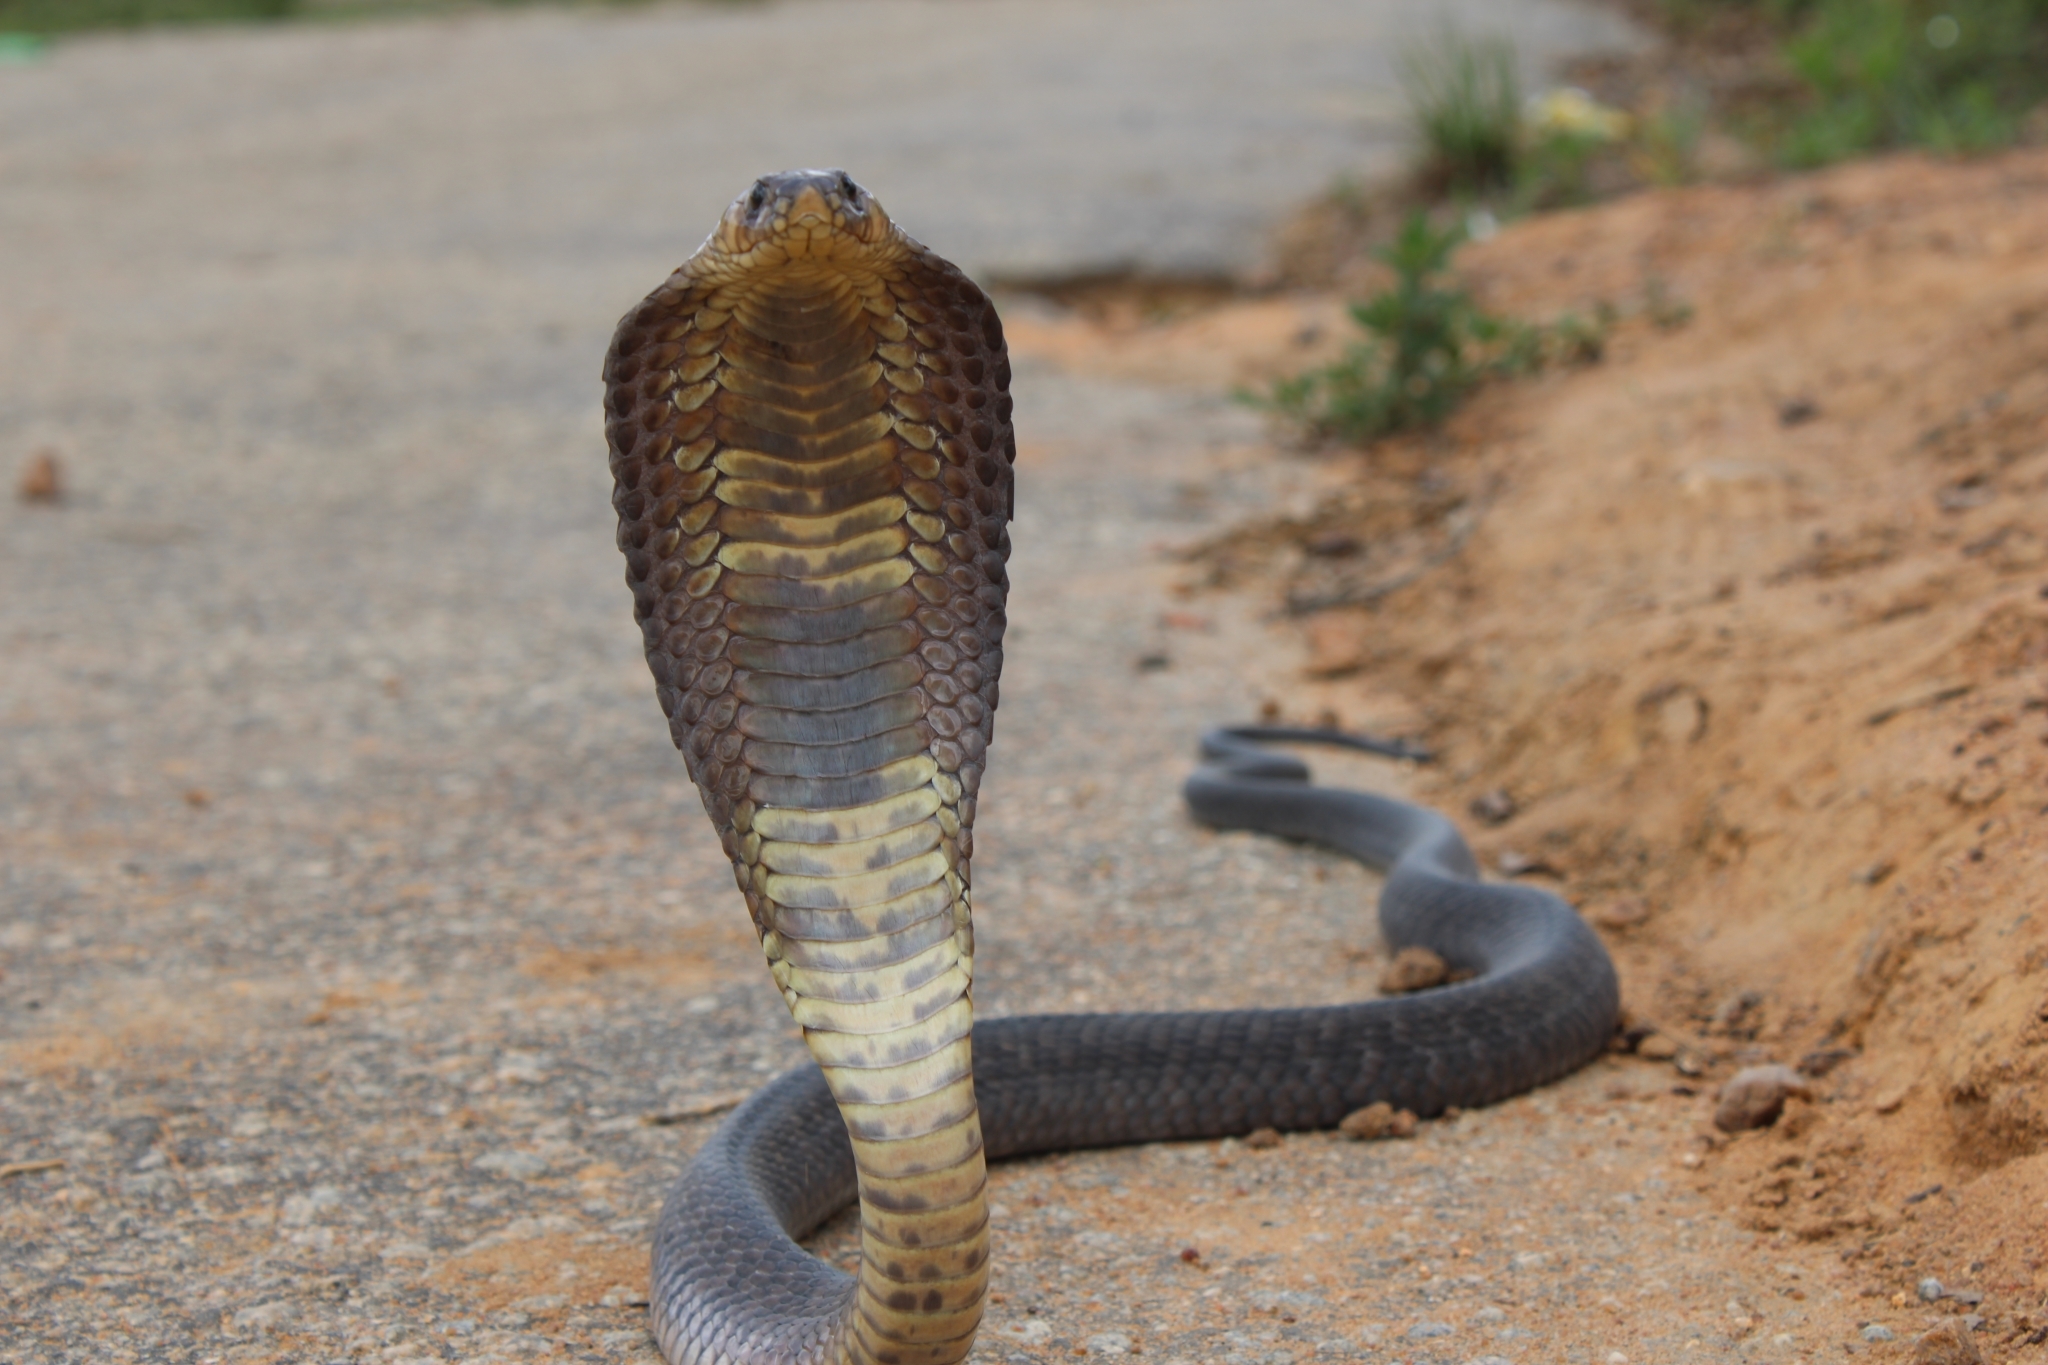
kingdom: Animalia
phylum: Chordata
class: Squamata
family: Elapidae
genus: Naja
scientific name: Naja annulifera
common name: Snouted cobra
